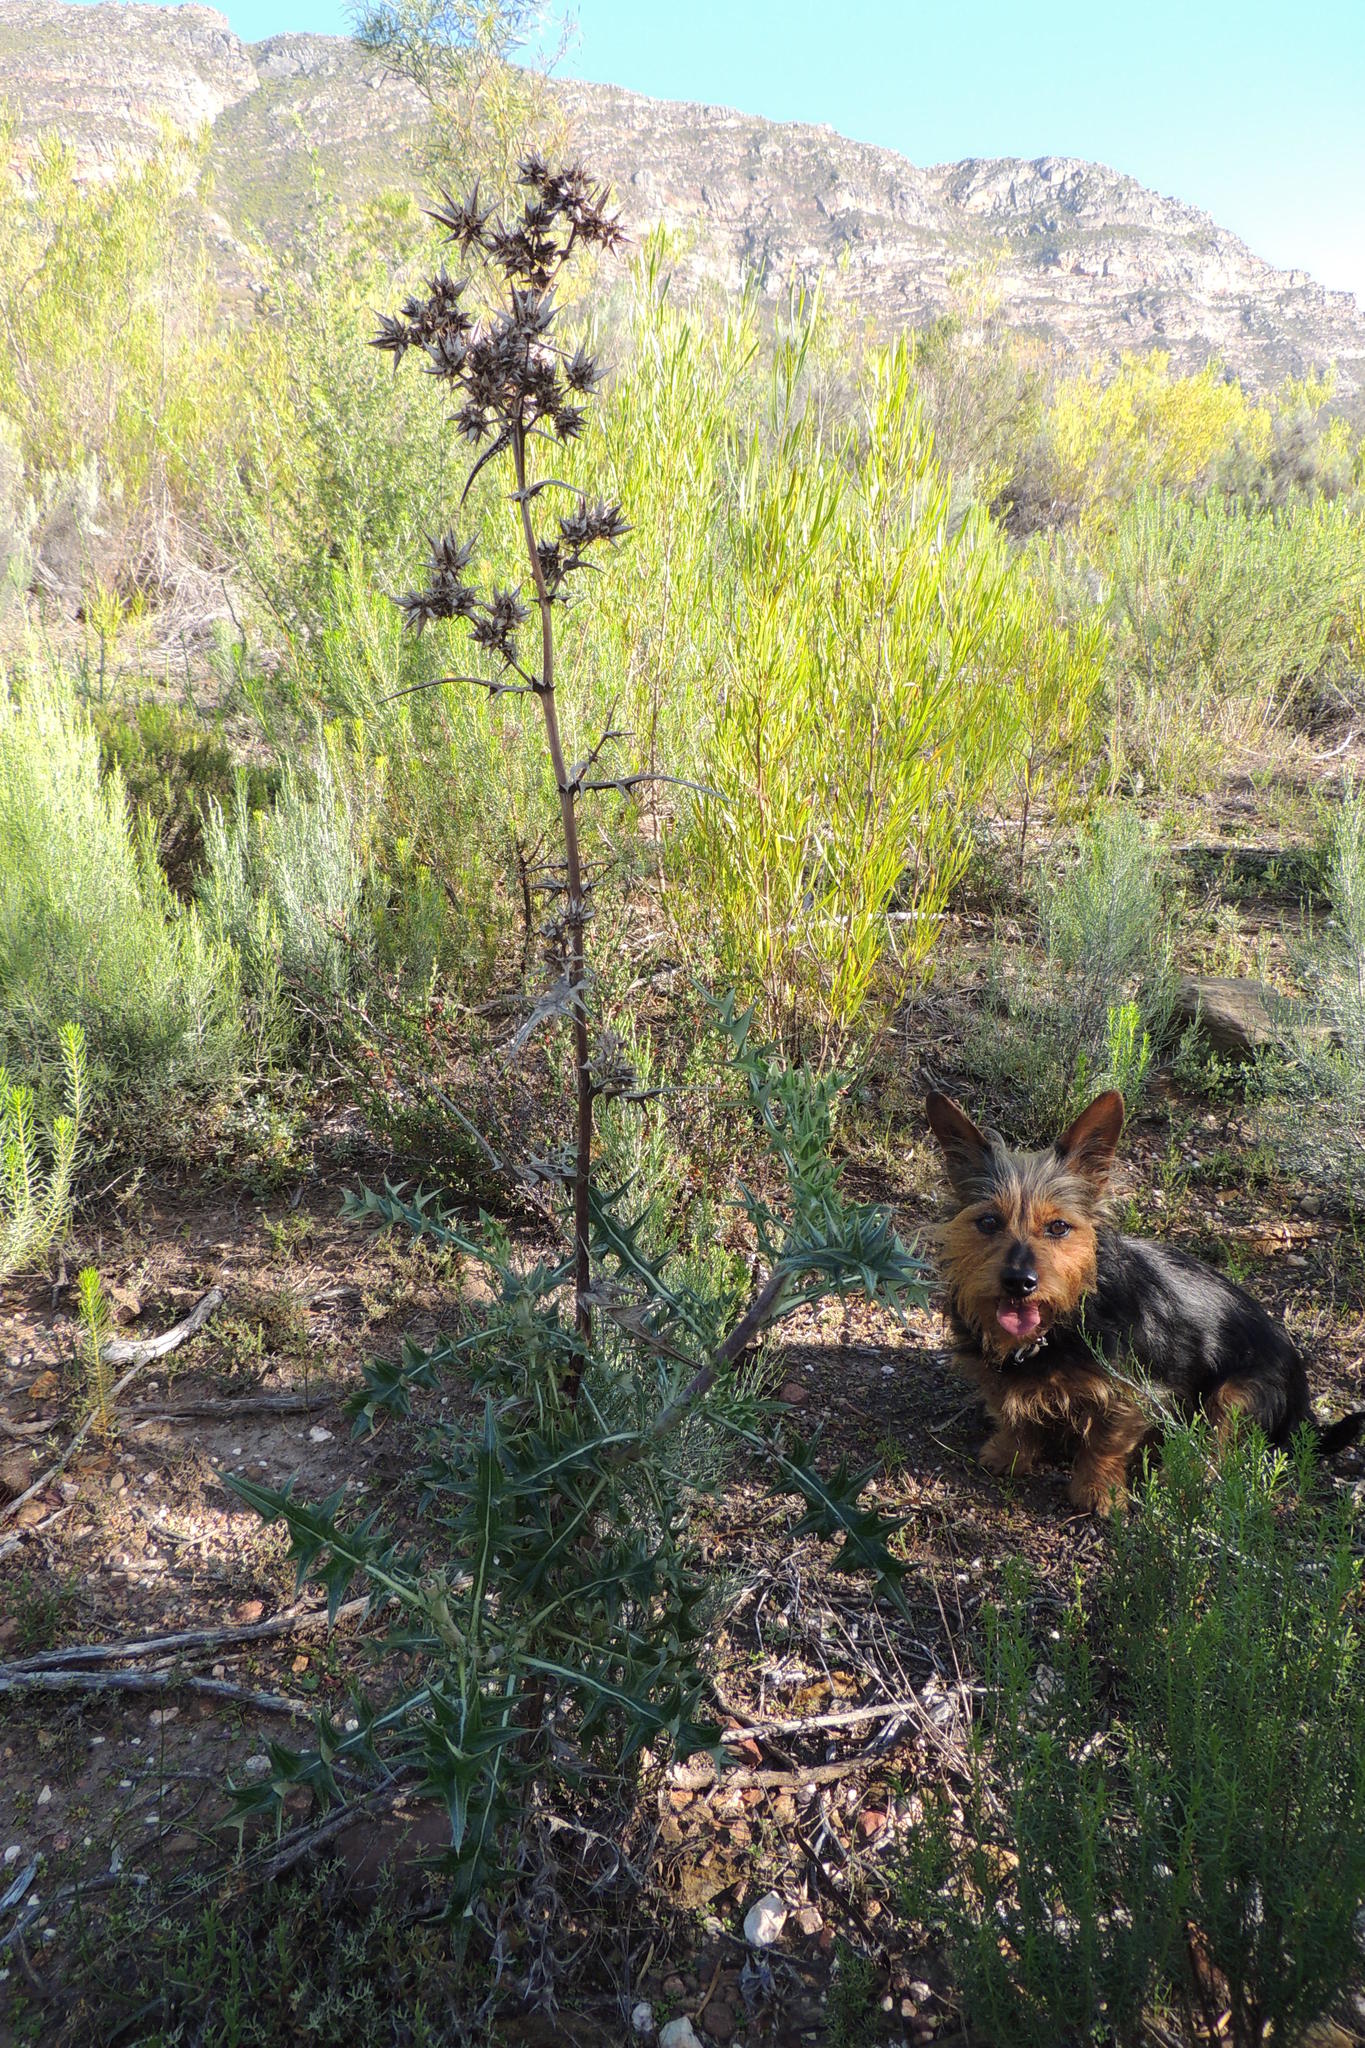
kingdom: Plantae
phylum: Tracheophyta
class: Magnoliopsida
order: Asterales
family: Asteraceae
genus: Berkheya
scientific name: Berkheya rigida
